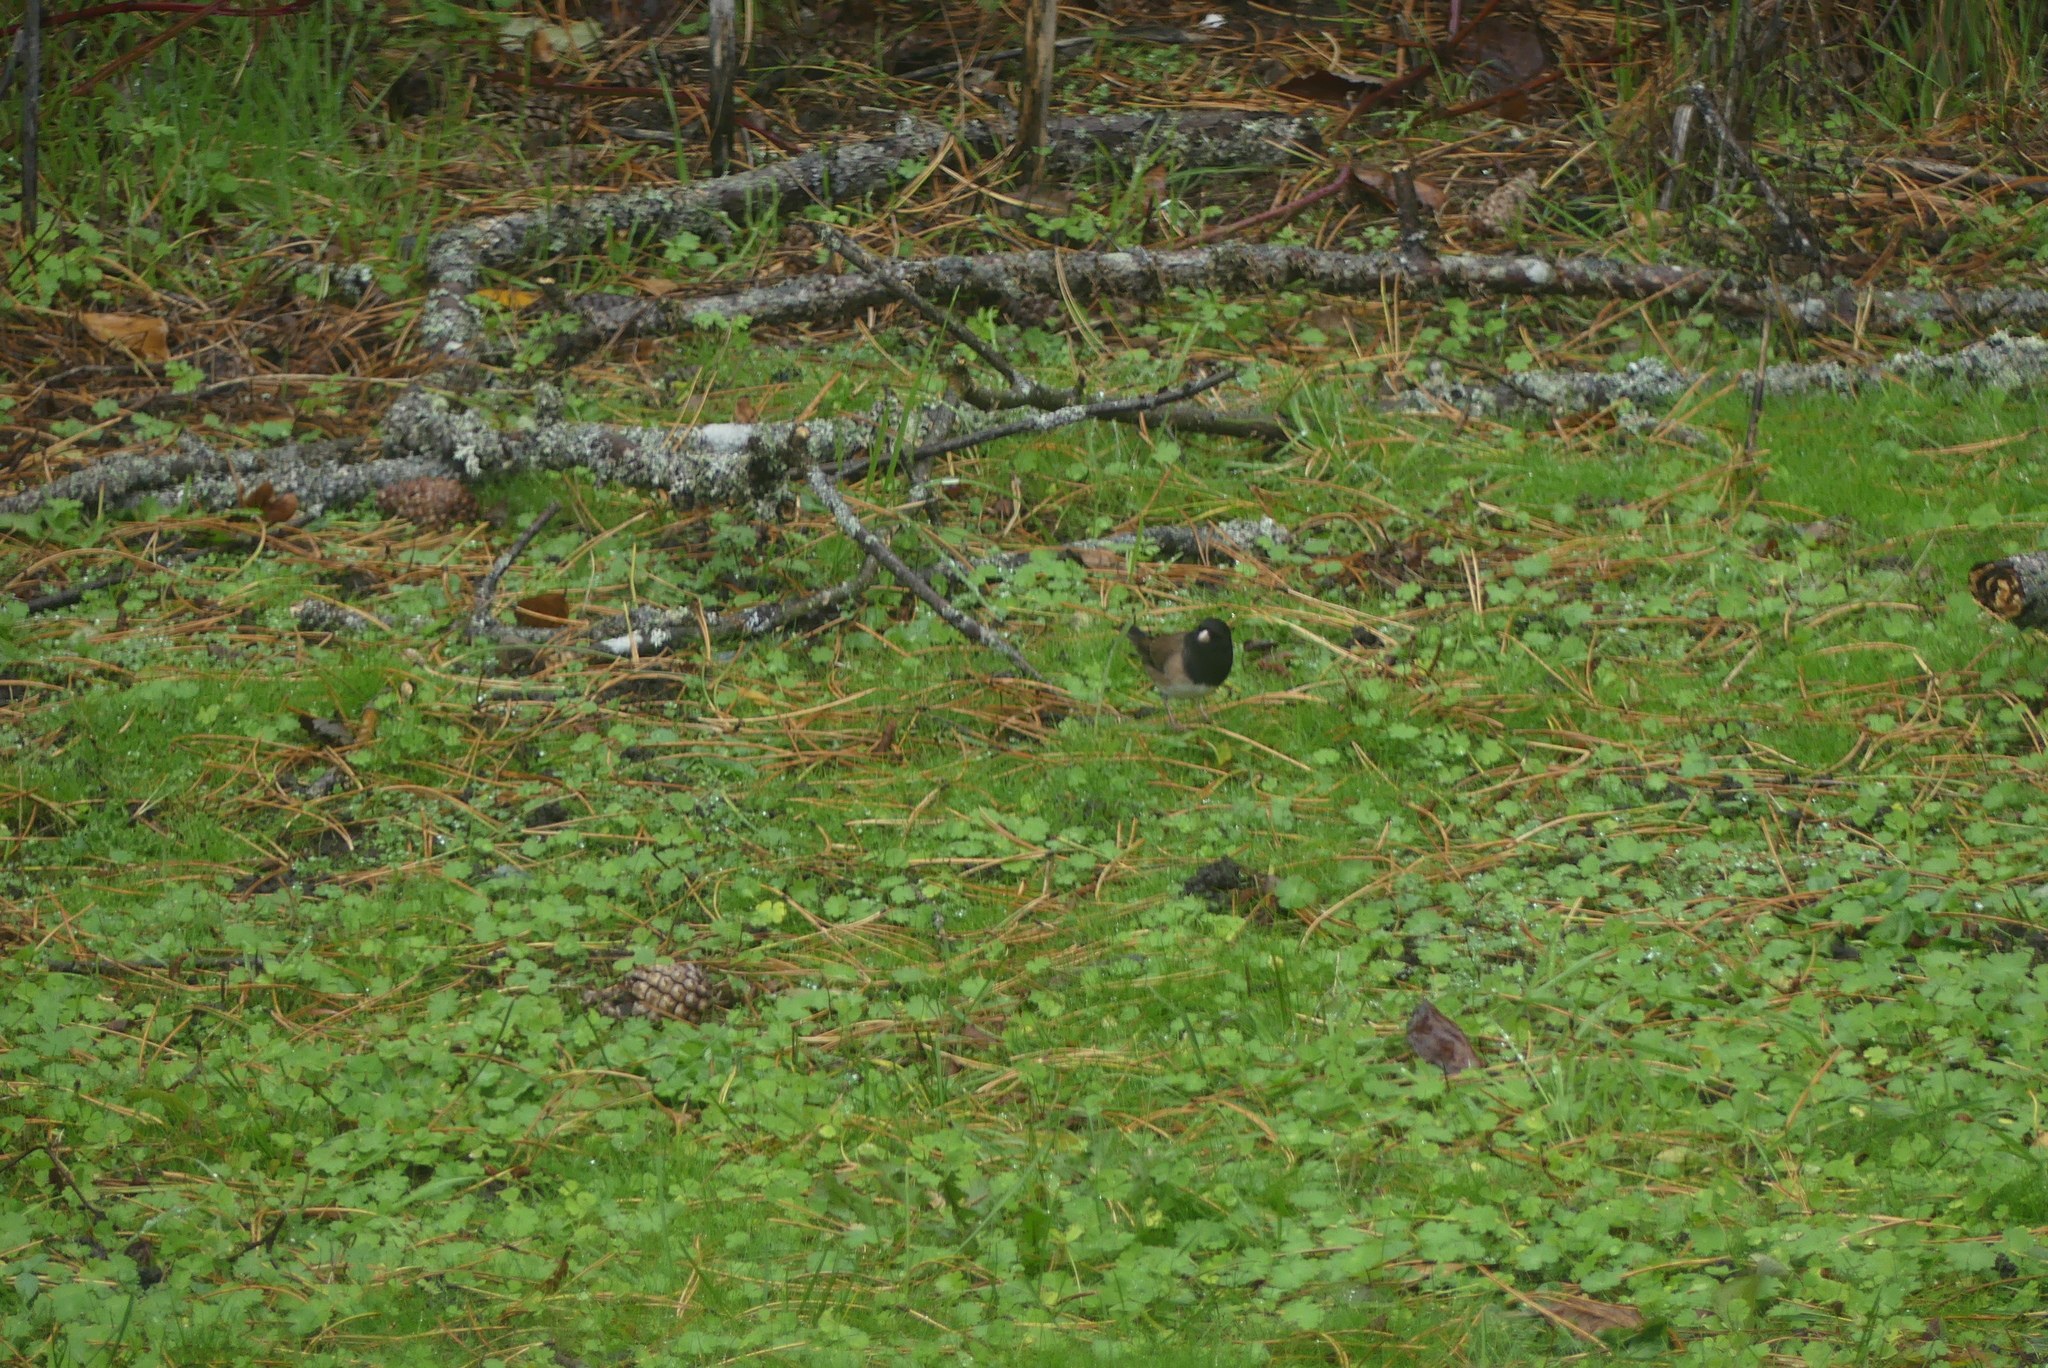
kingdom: Animalia
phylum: Chordata
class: Aves
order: Passeriformes
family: Passerellidae
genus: Junco
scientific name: Junco hyemalis
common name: Dark-eyed junco
